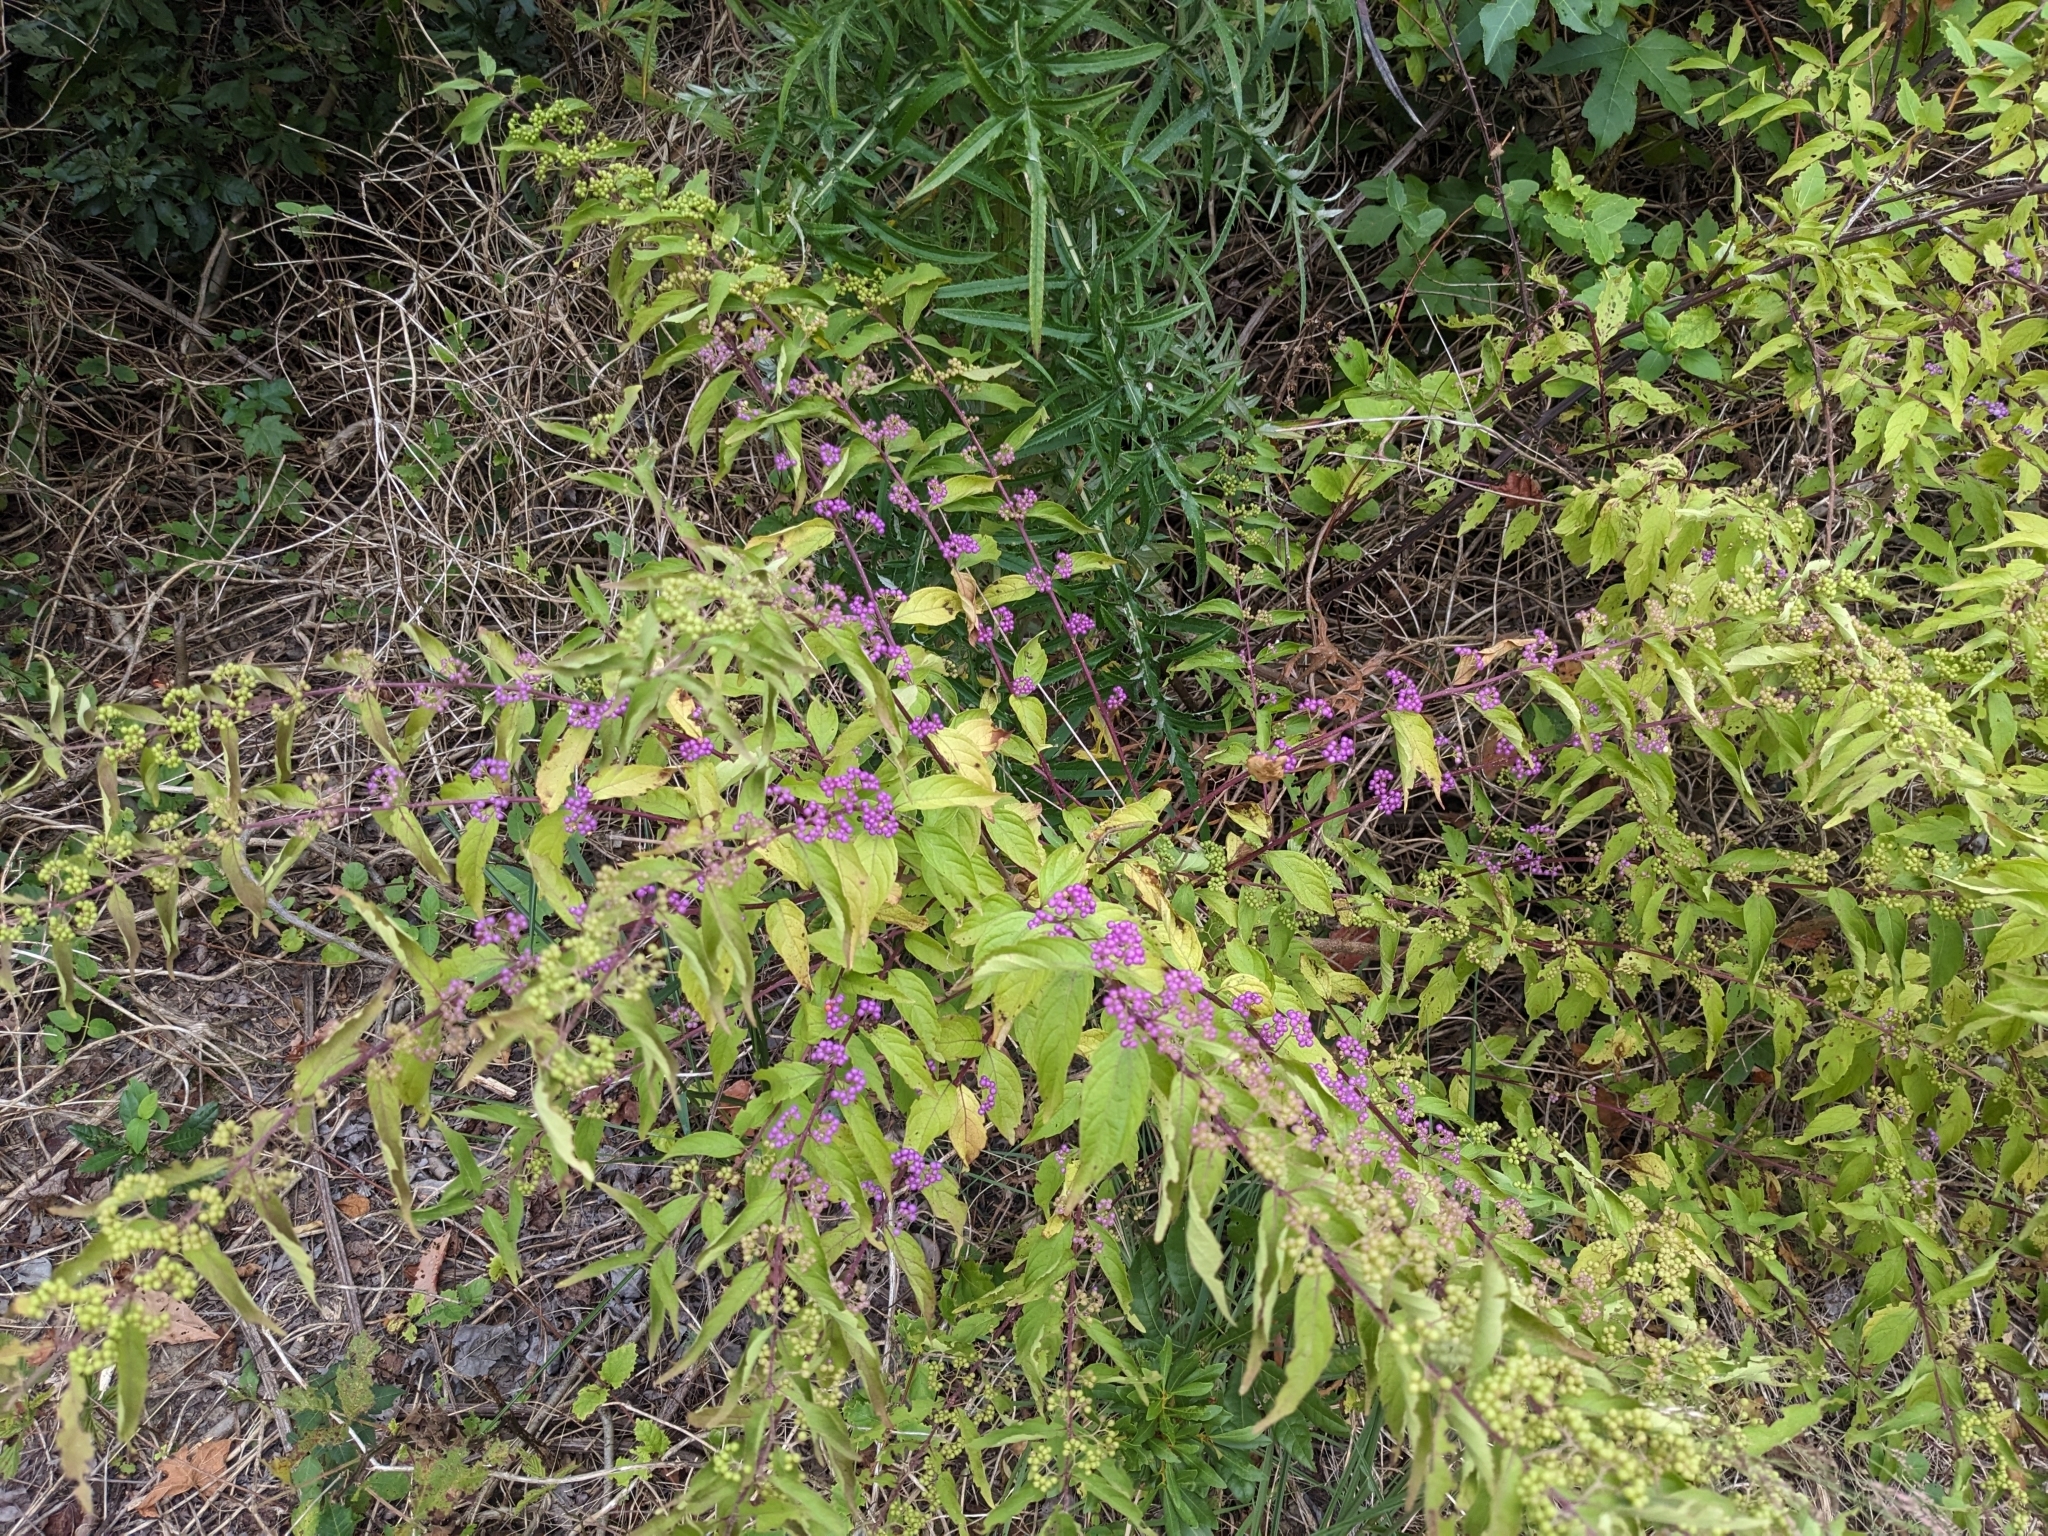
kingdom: Plantae
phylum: Tracheophyta
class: Magnoliopsida
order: Lamiales
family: Lamiaceae
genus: Callicarpa
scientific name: Callicarpa dichotoma
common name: Purple beauty-berry
